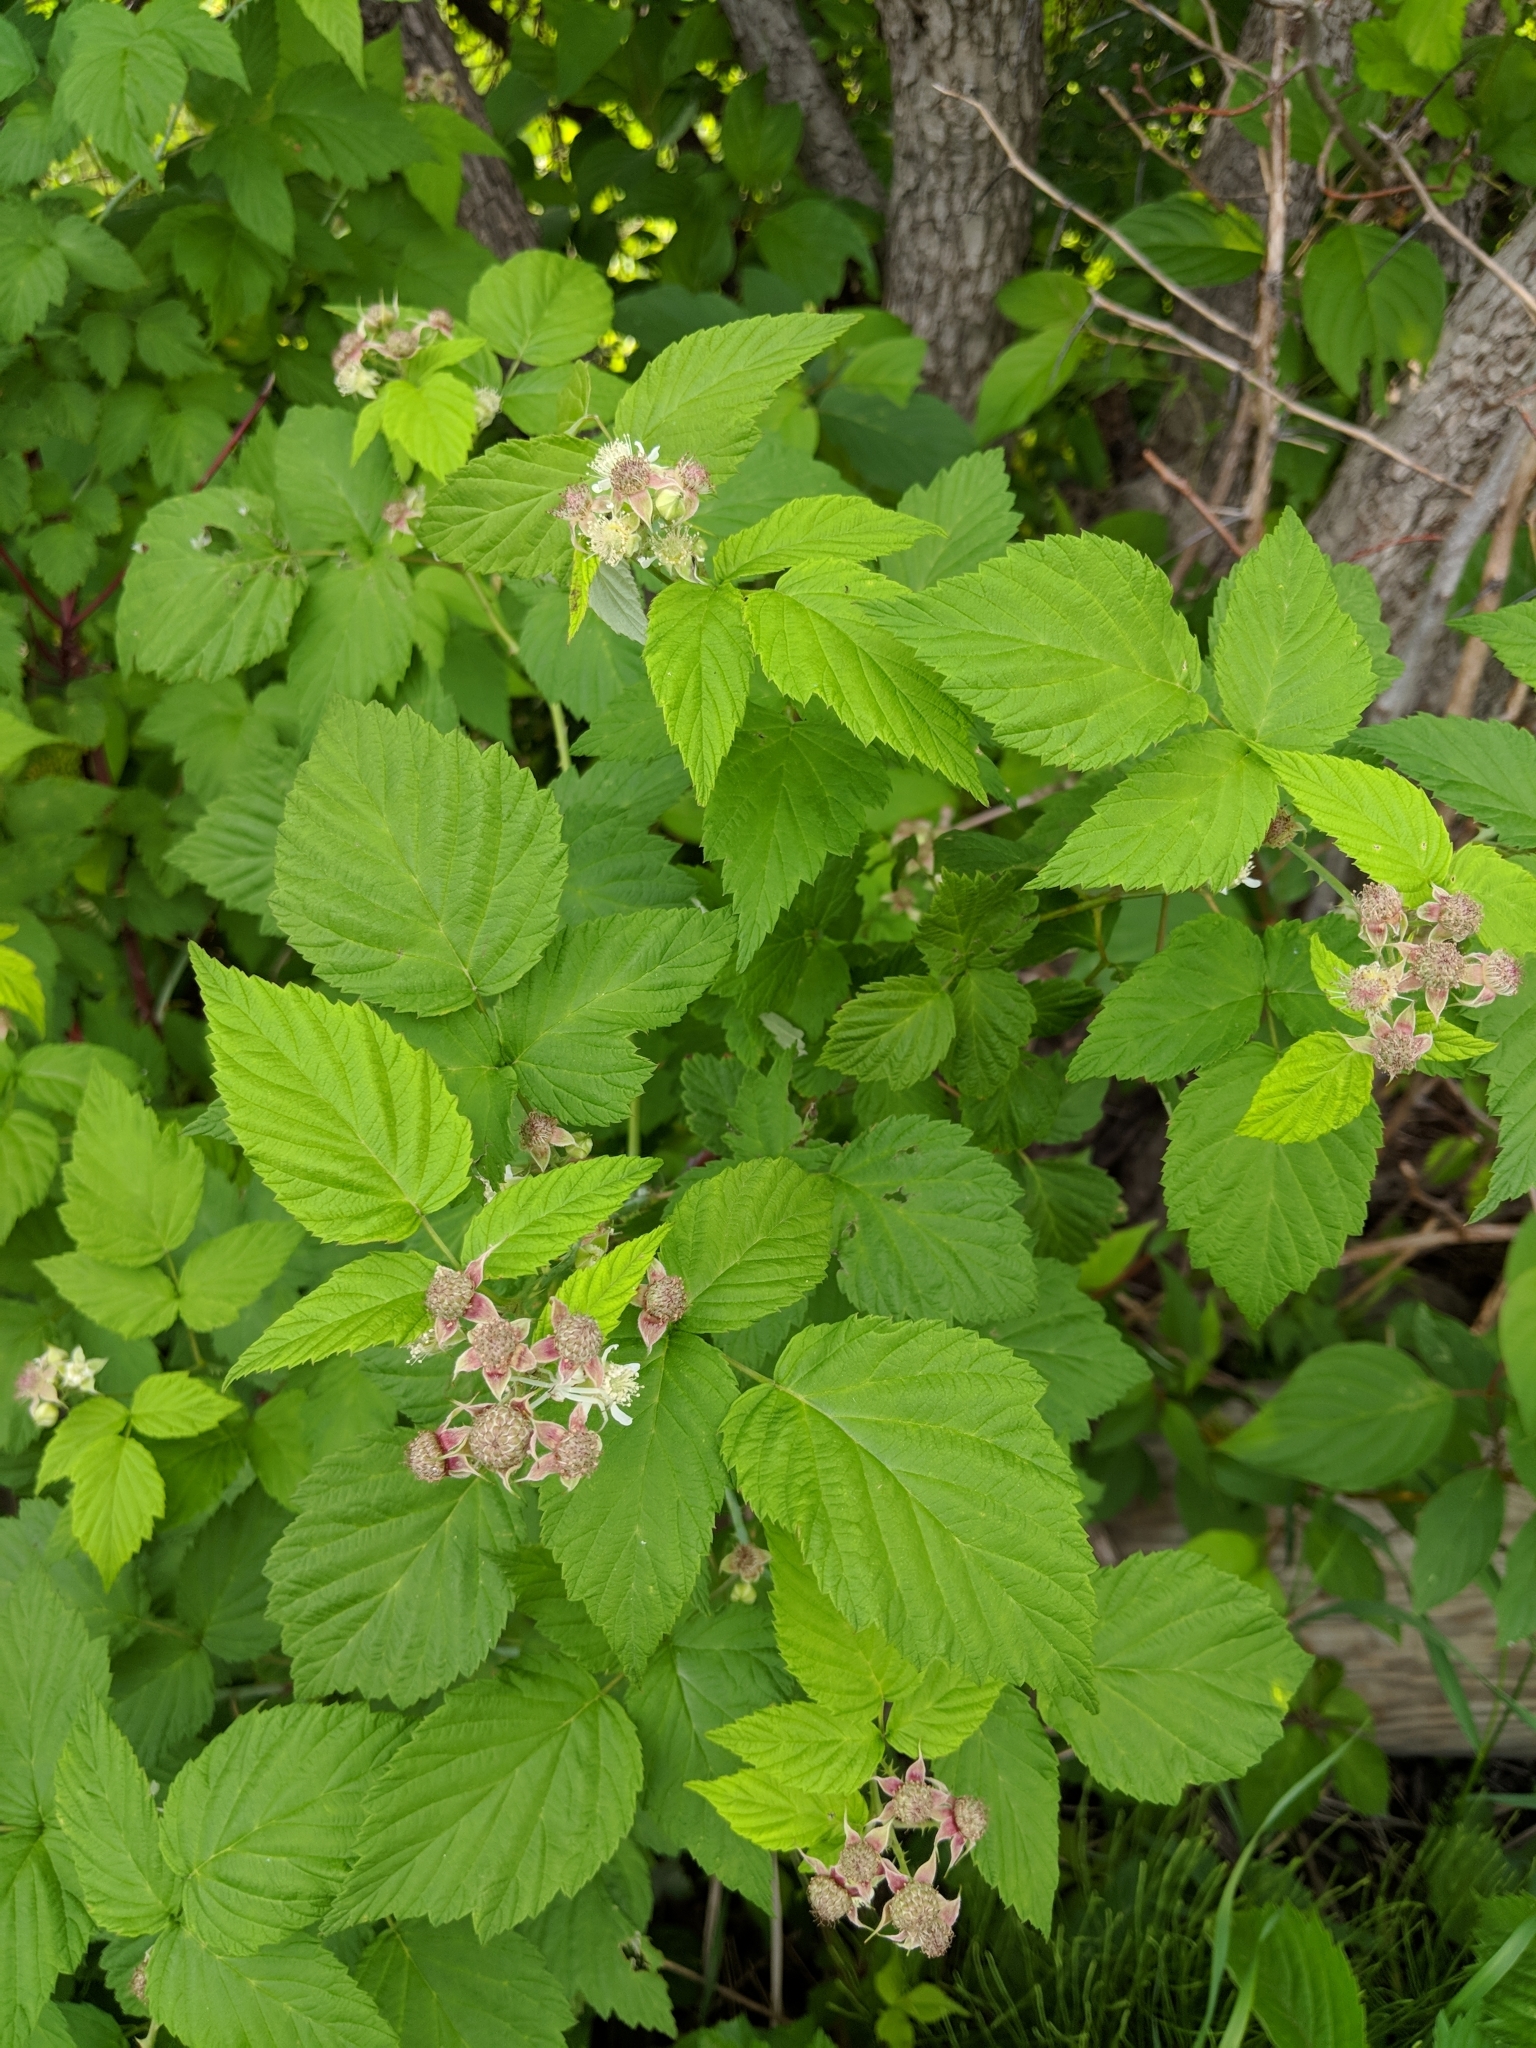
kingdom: Plantae
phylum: Tracheophyta
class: Magnoliopsida
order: Rosales
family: Rosaceae
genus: Rubus
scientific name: Rubus idaeus
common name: Raspberry
